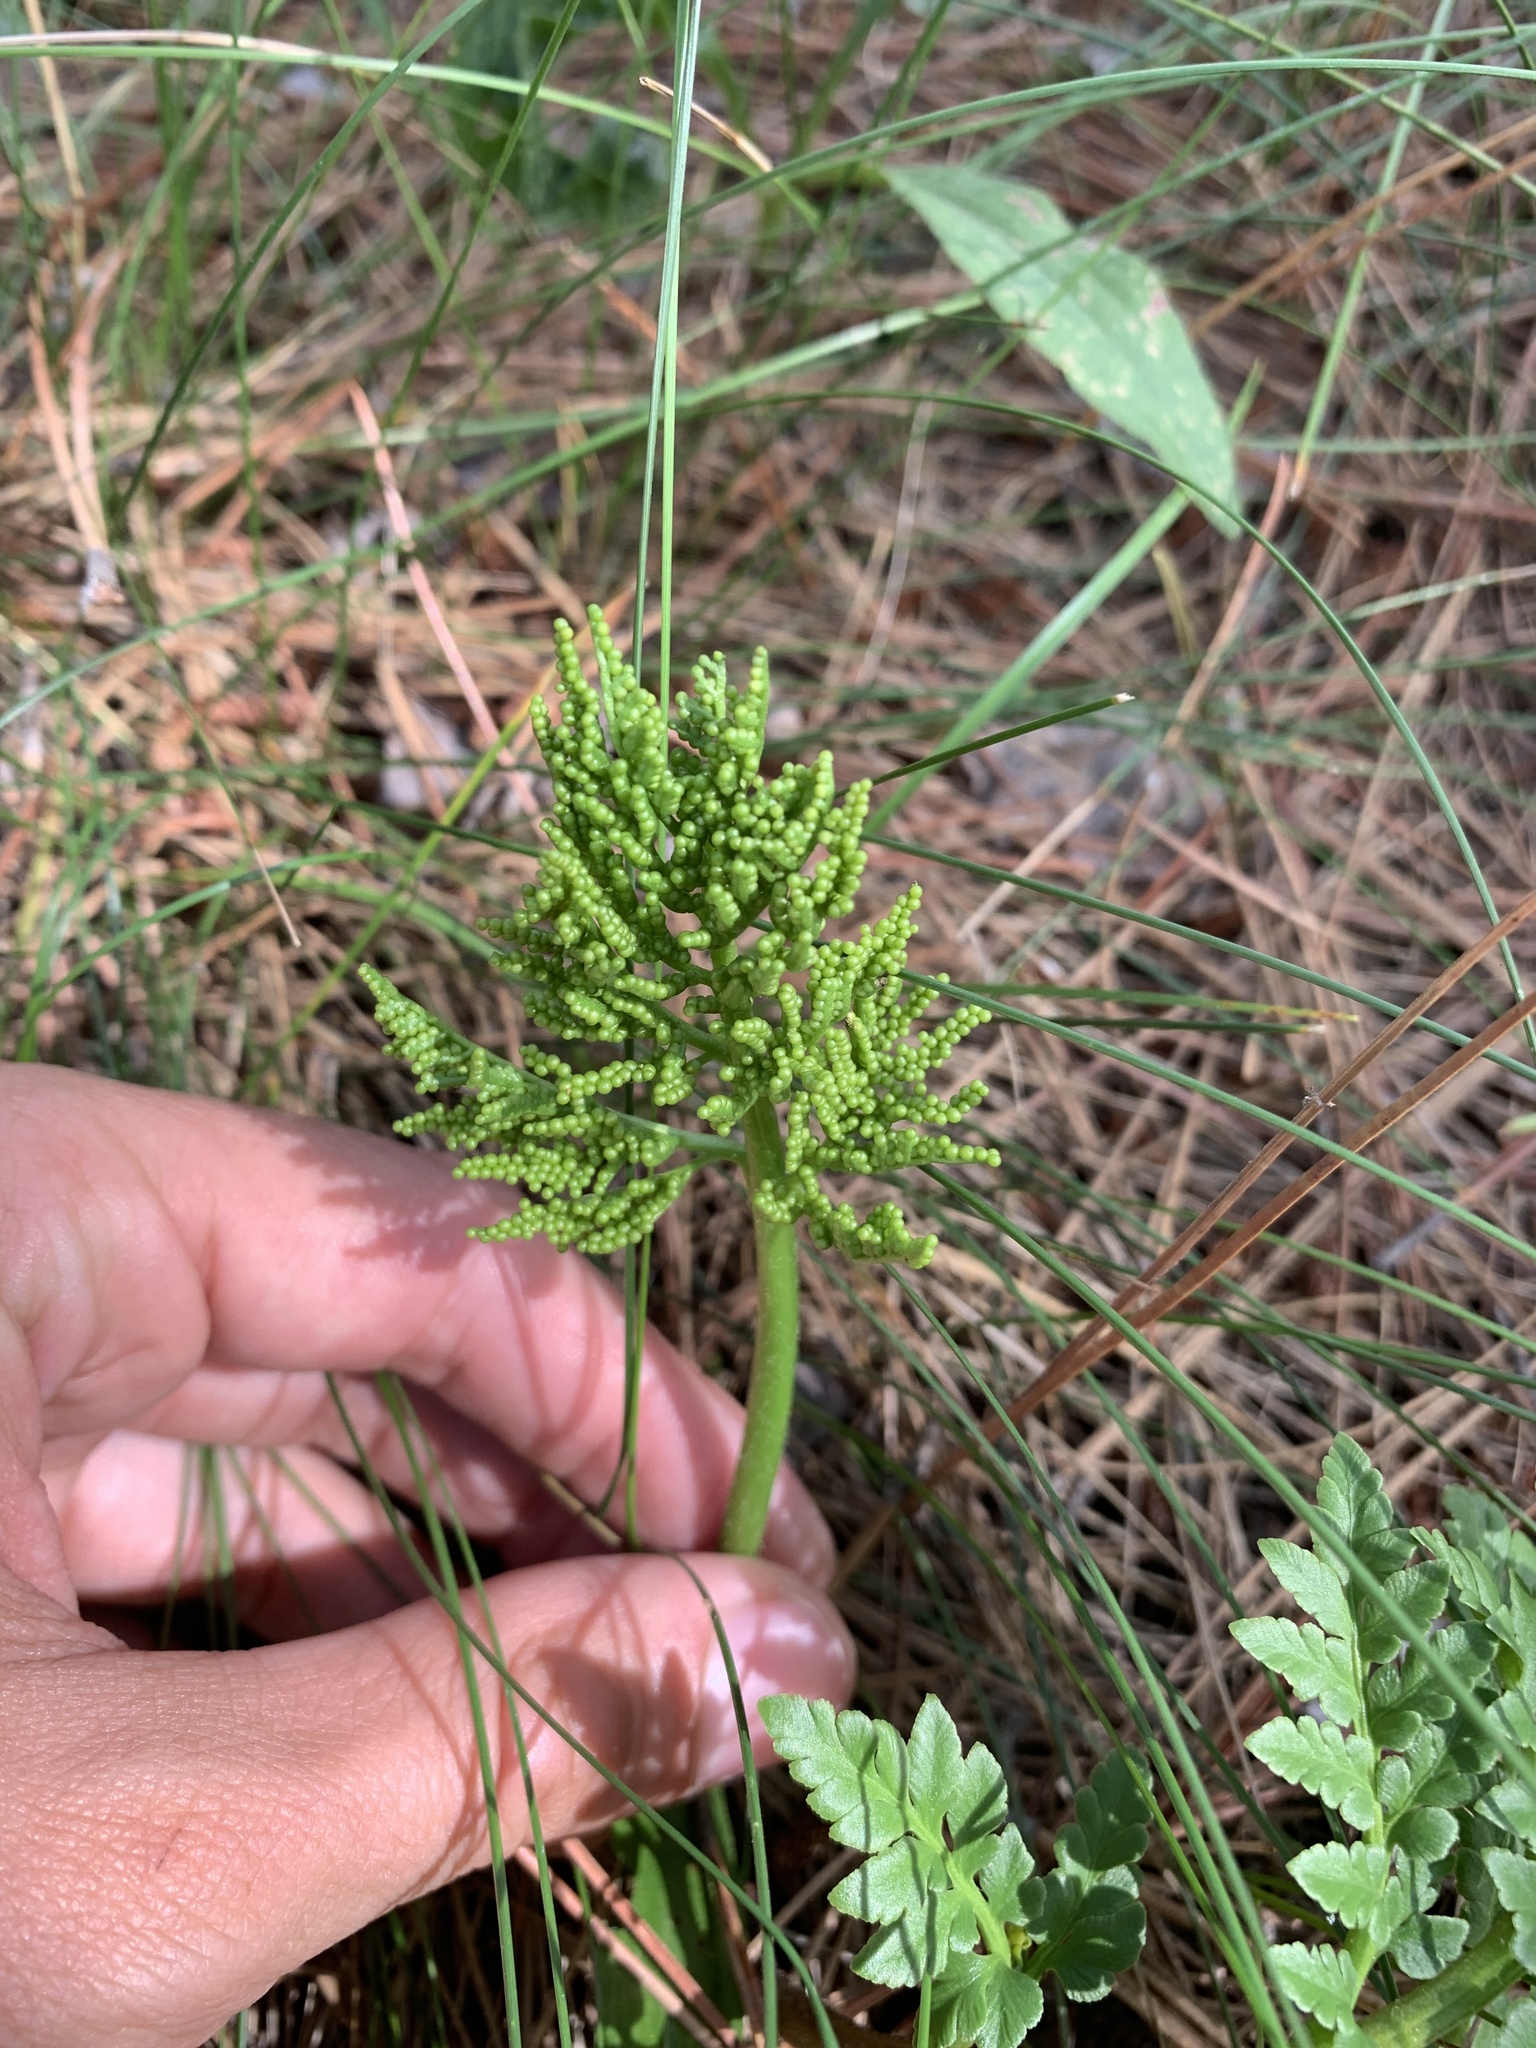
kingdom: Plantae
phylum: Tracheophyta
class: Polypodiopsida
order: Ophioglossales
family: Ophioglossaceae
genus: Sceptridium
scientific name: Sceptridium multifidum
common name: Leathery grape fern
